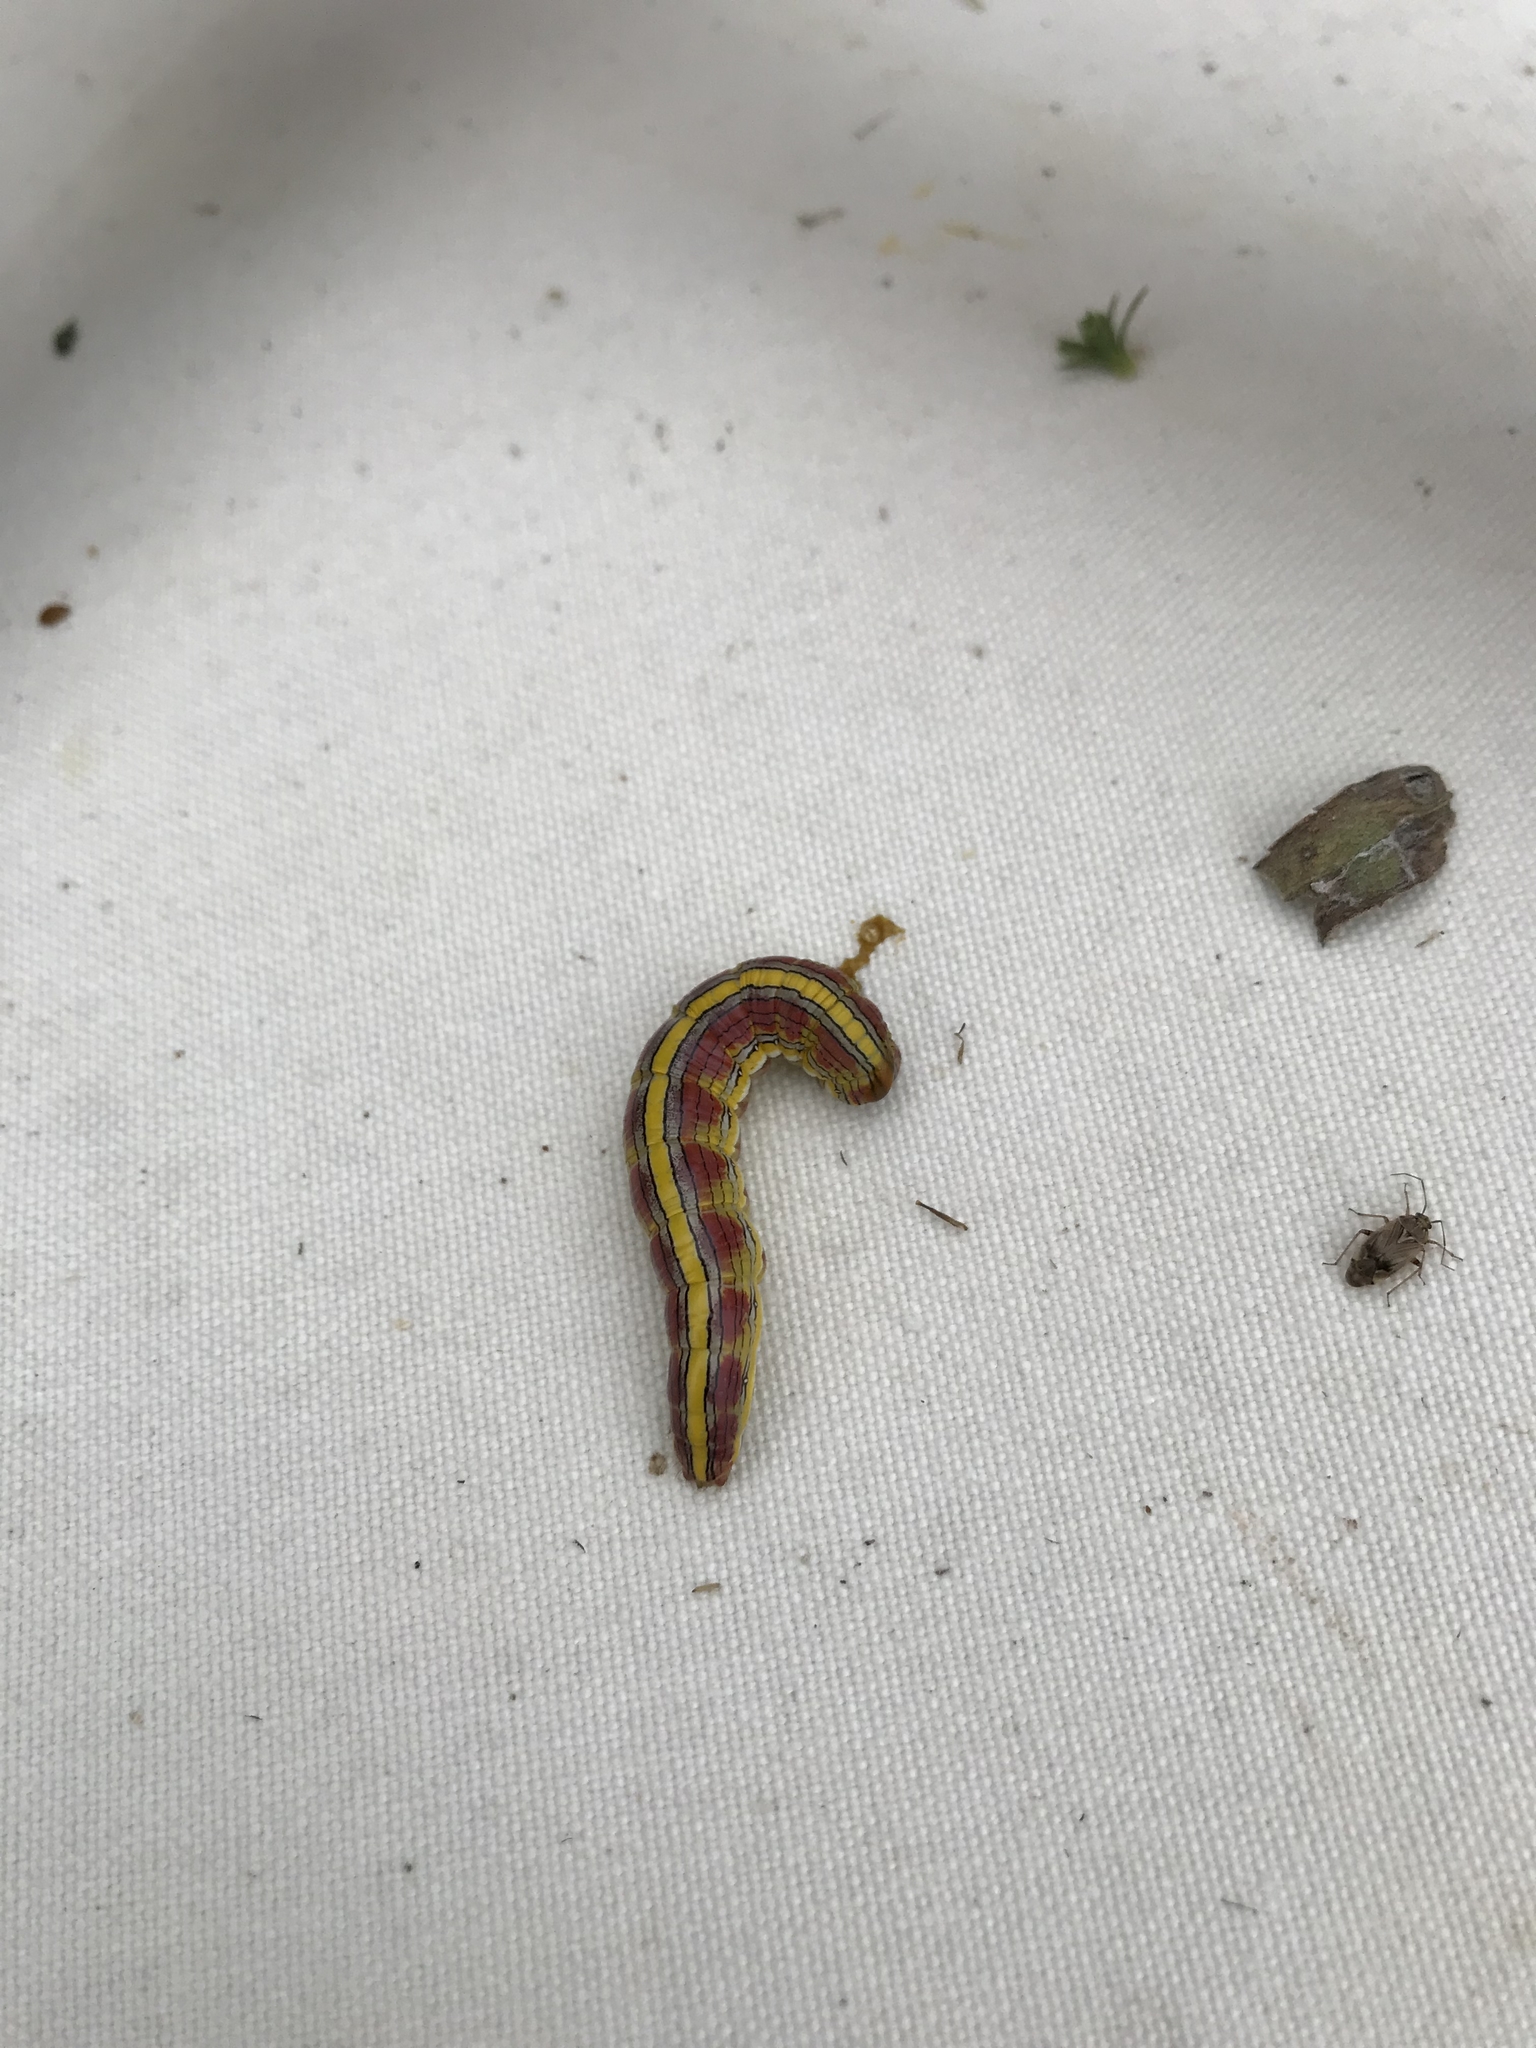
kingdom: Animalia
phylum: Arthropoda
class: Insecta
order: Lepidoptera
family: Noctuidae
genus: Cucullia
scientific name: Cucullia asteroides
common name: Asteroid moth
